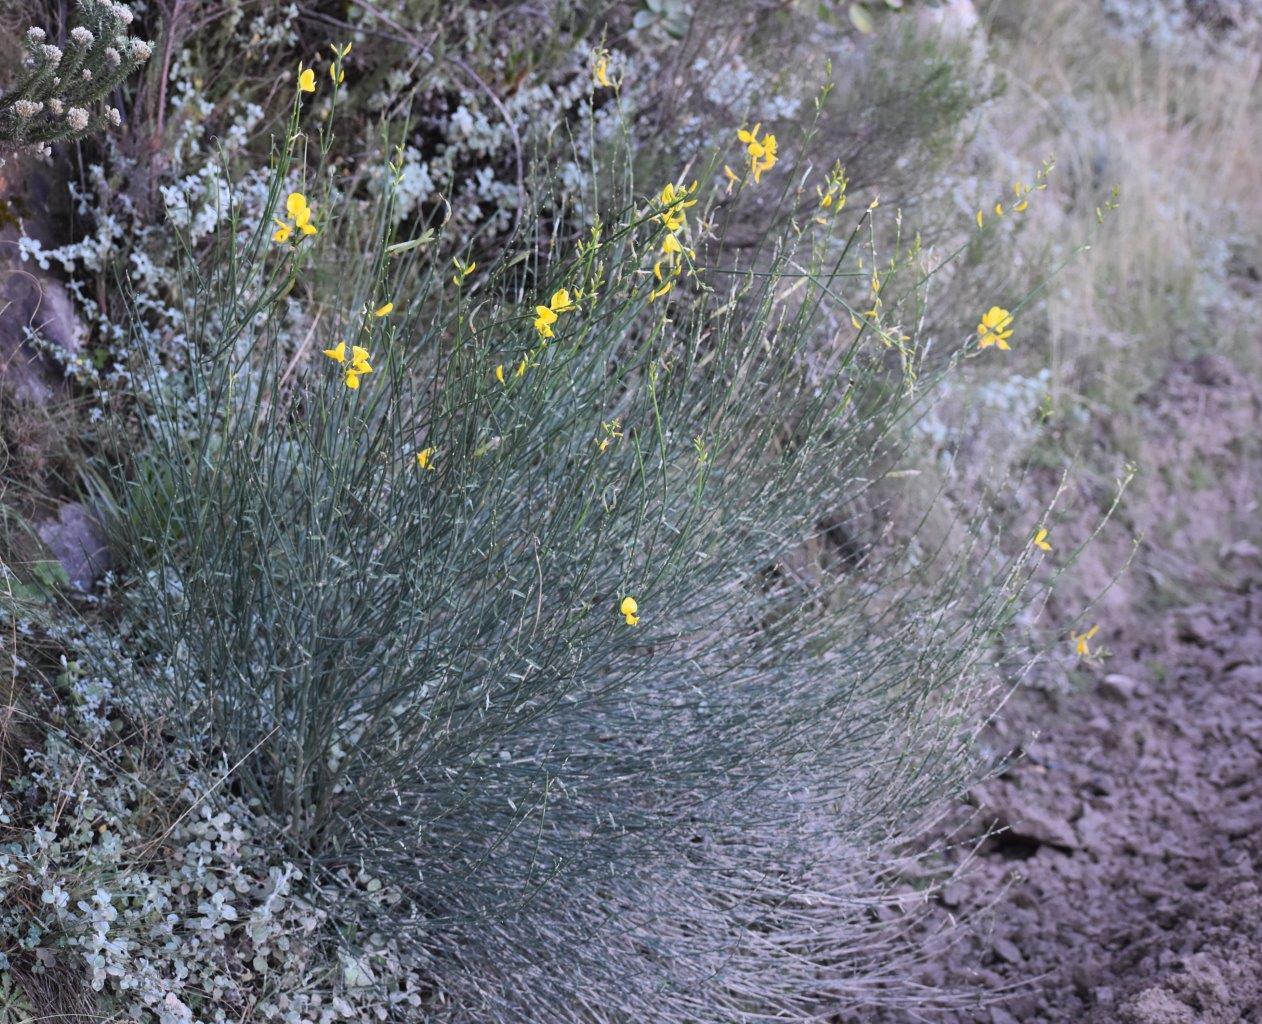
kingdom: Plantae
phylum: Tracheophyta
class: Magnoliopsida
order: Fabales
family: Fabaceae
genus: Spartium
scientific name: Spartium junceum
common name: Spanish broom
